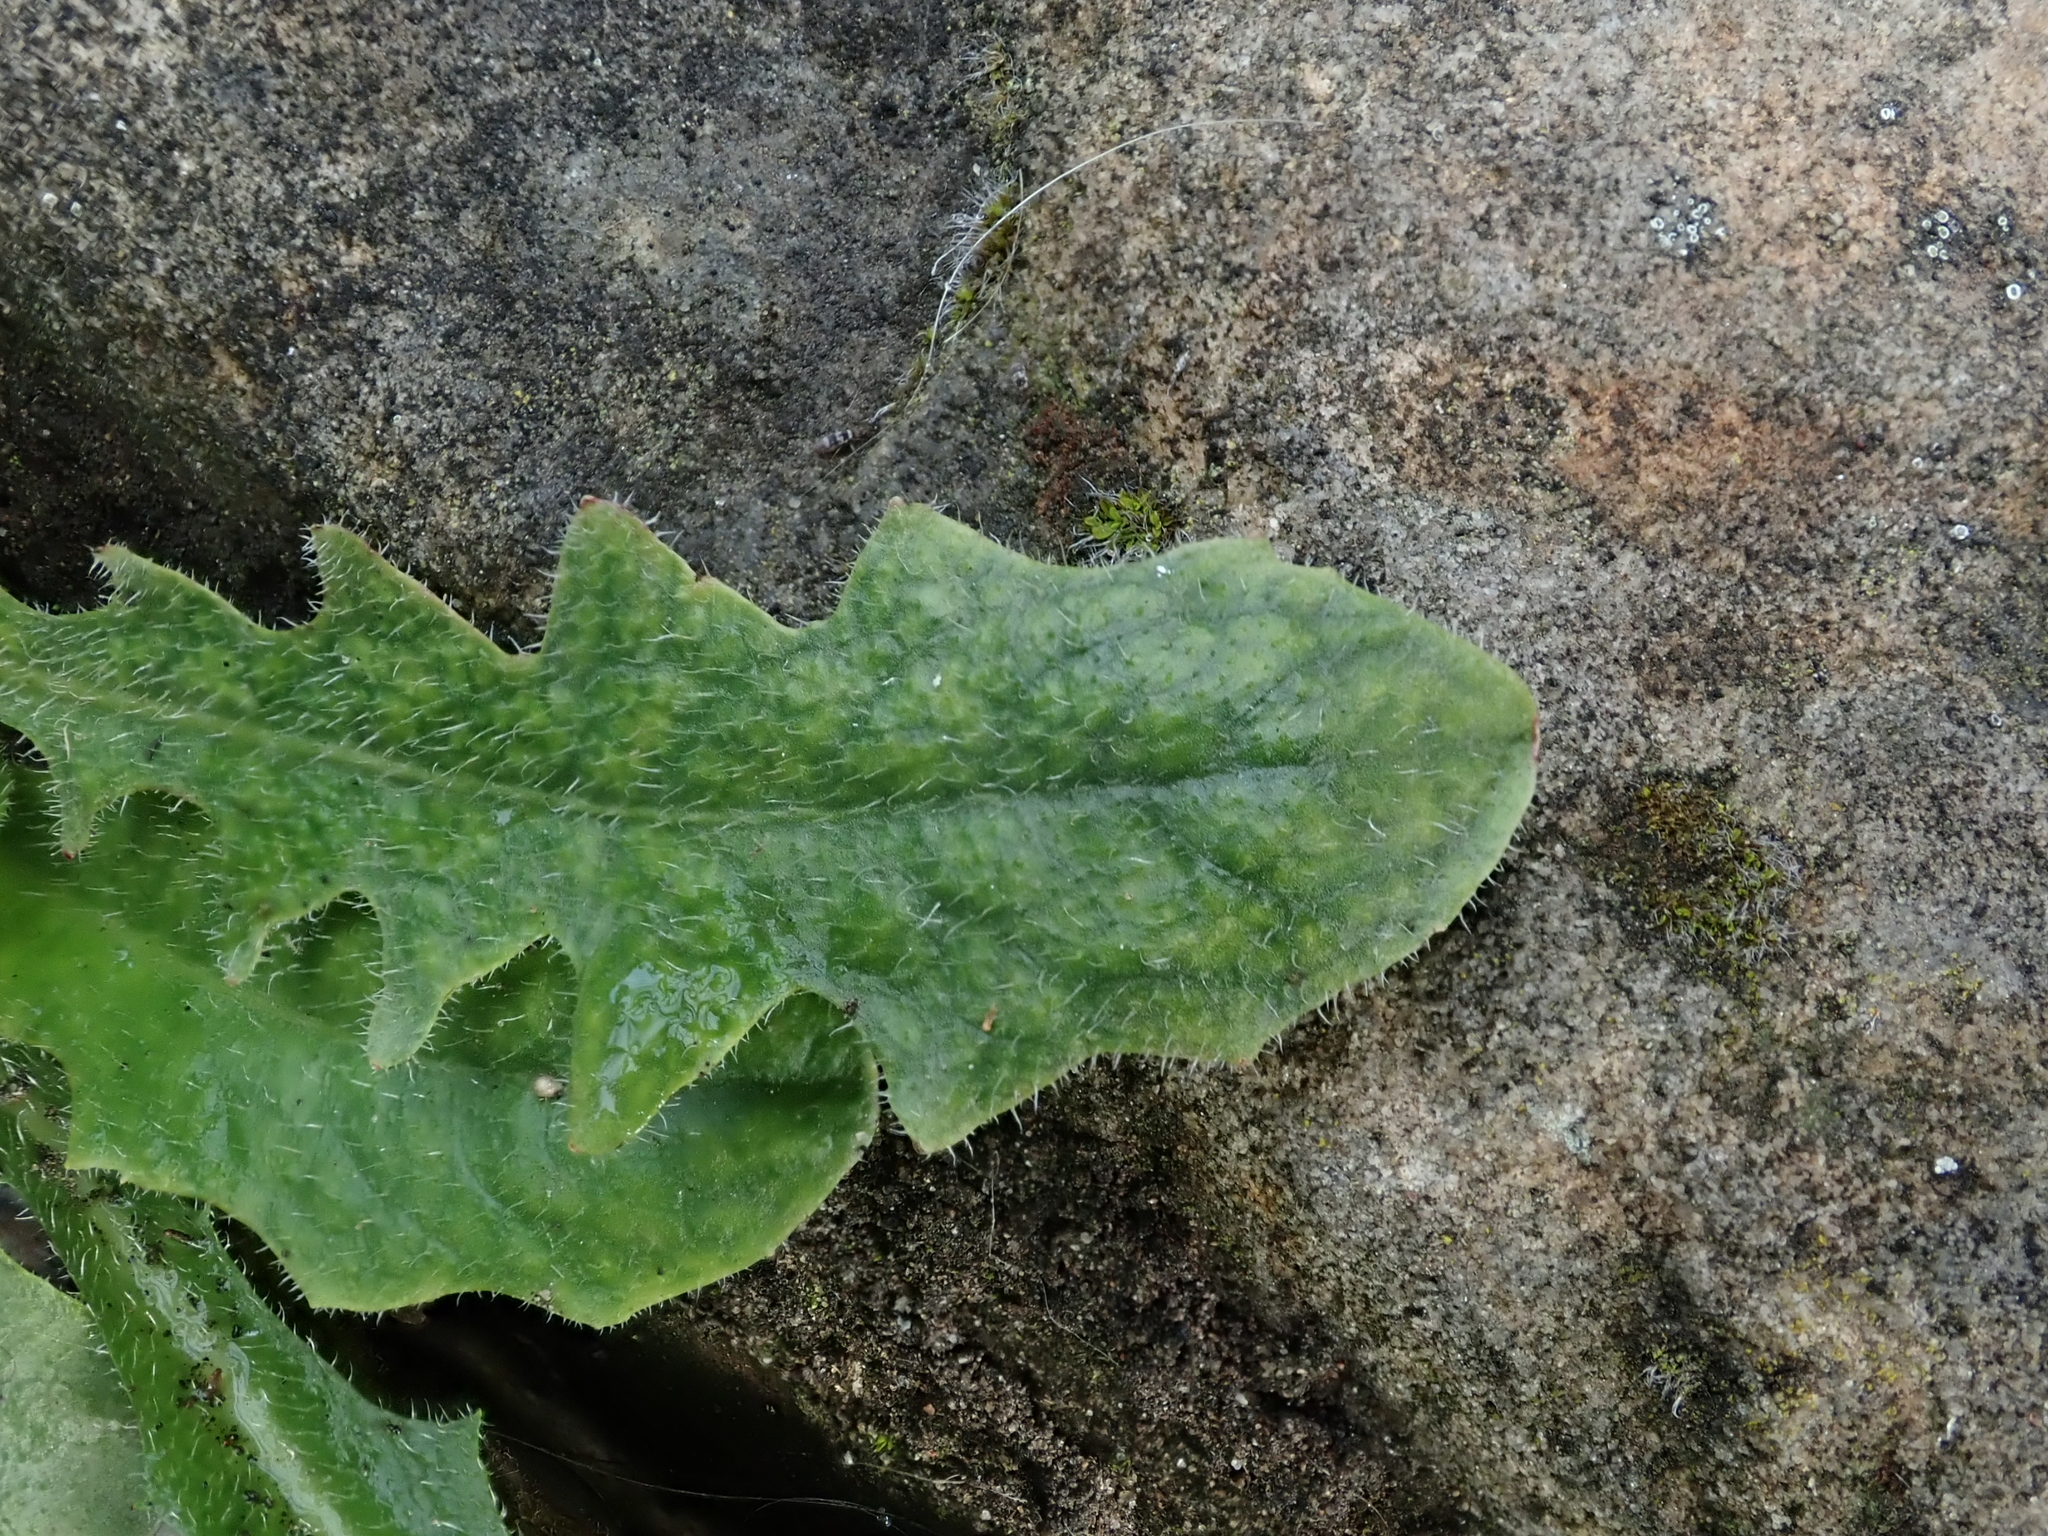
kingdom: Plantae
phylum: Tracheophyta
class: Magnoliopsida
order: Asterales
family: Asteraceae
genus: Hypochaeris
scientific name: Hypochaeris radicata
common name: Flatweed
